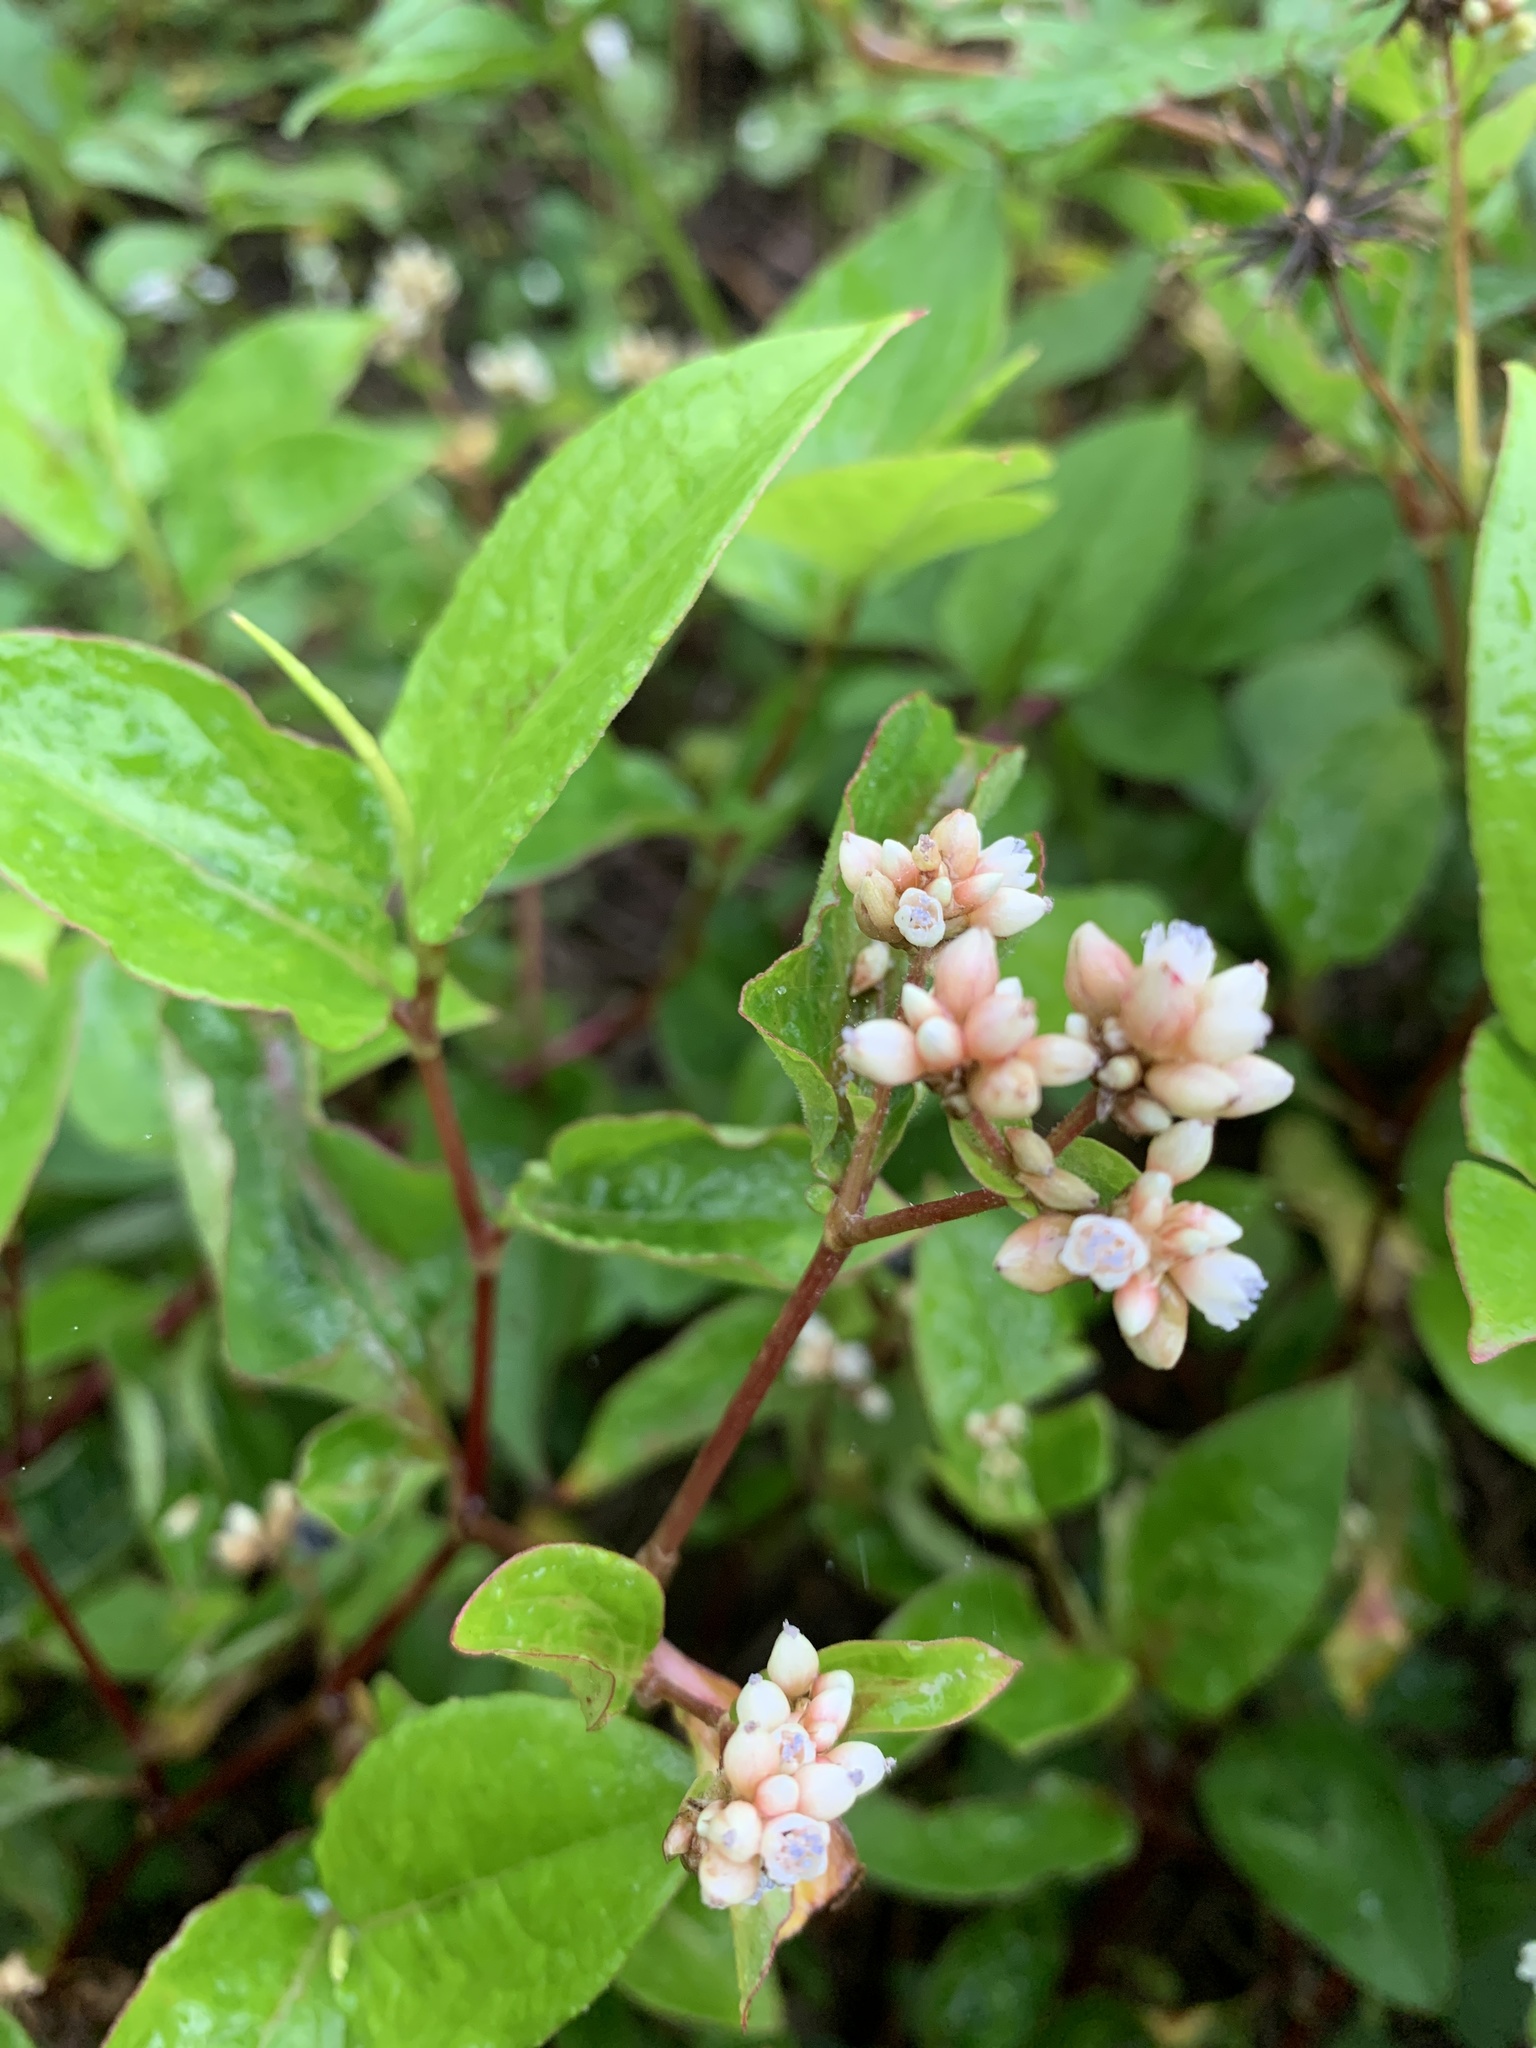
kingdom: Plantae
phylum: Tracheophyta
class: Magnoliopsida
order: Caryophyllales
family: Polygonaceae
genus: Persicaria
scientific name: Persicaria chinensis
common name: Chinese knotweed
